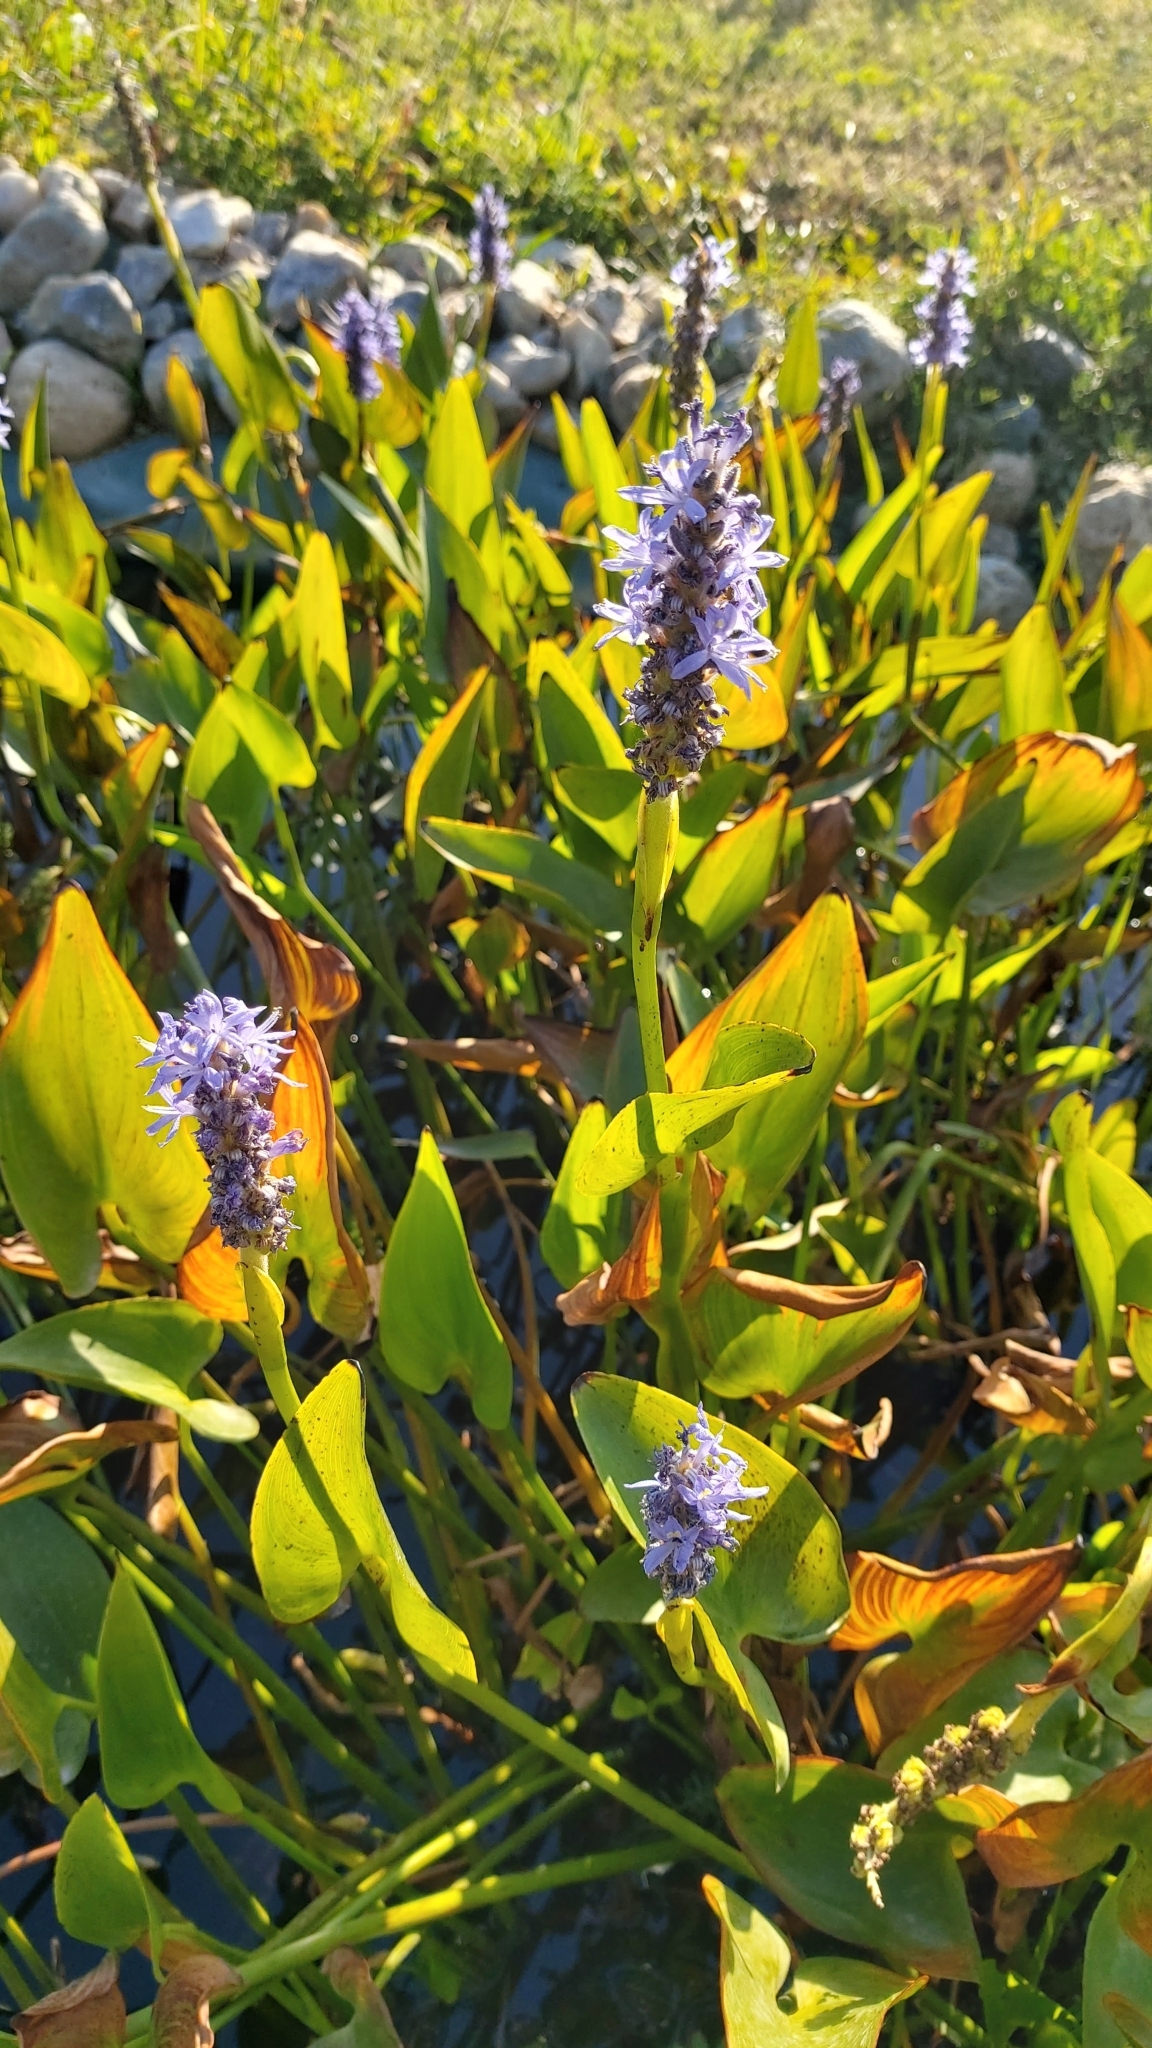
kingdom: Plantae
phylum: Tracheophyta
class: Liliopsida
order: Commelinales
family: Pontederiaceae
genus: Pontederia
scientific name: Pontederia cordata
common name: Pickerelweed
